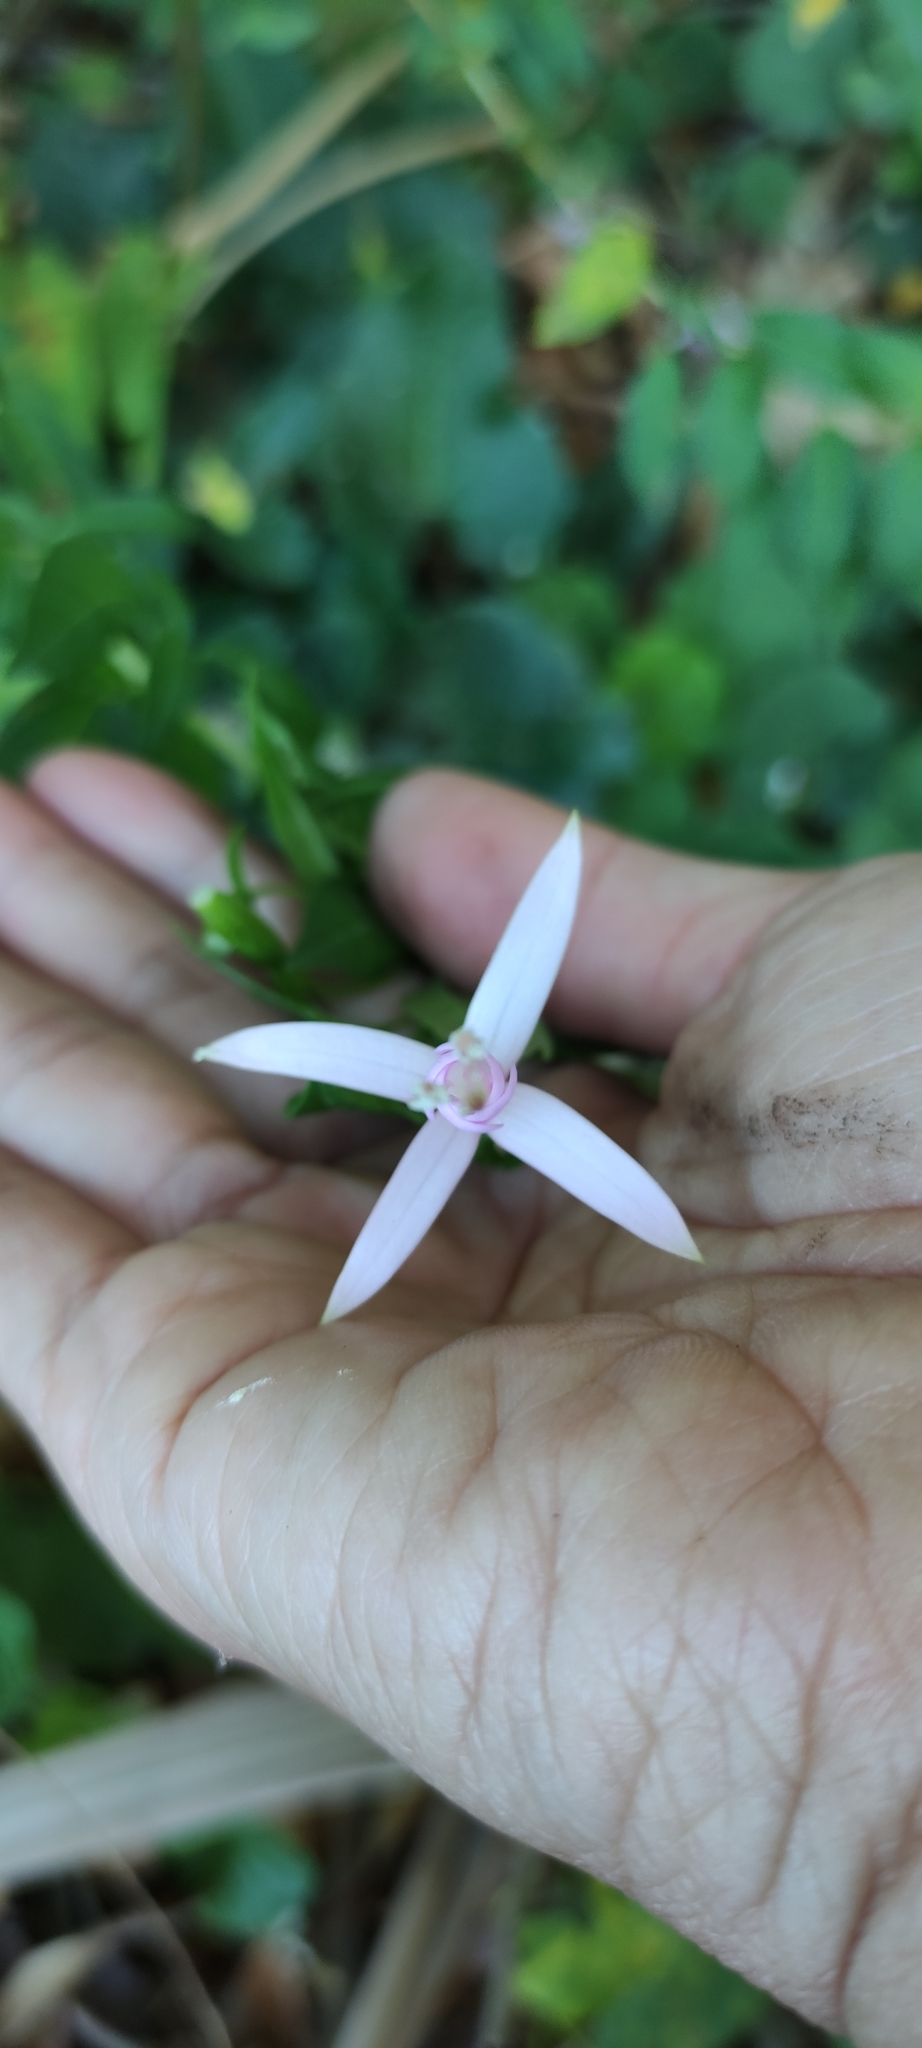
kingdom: Plantae
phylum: Tracheophyta
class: Magnoliopsida
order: Myrtales
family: Onagraceae
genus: Fuchsia
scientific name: Fuchsia magellanica
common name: Hardy fuchsia
